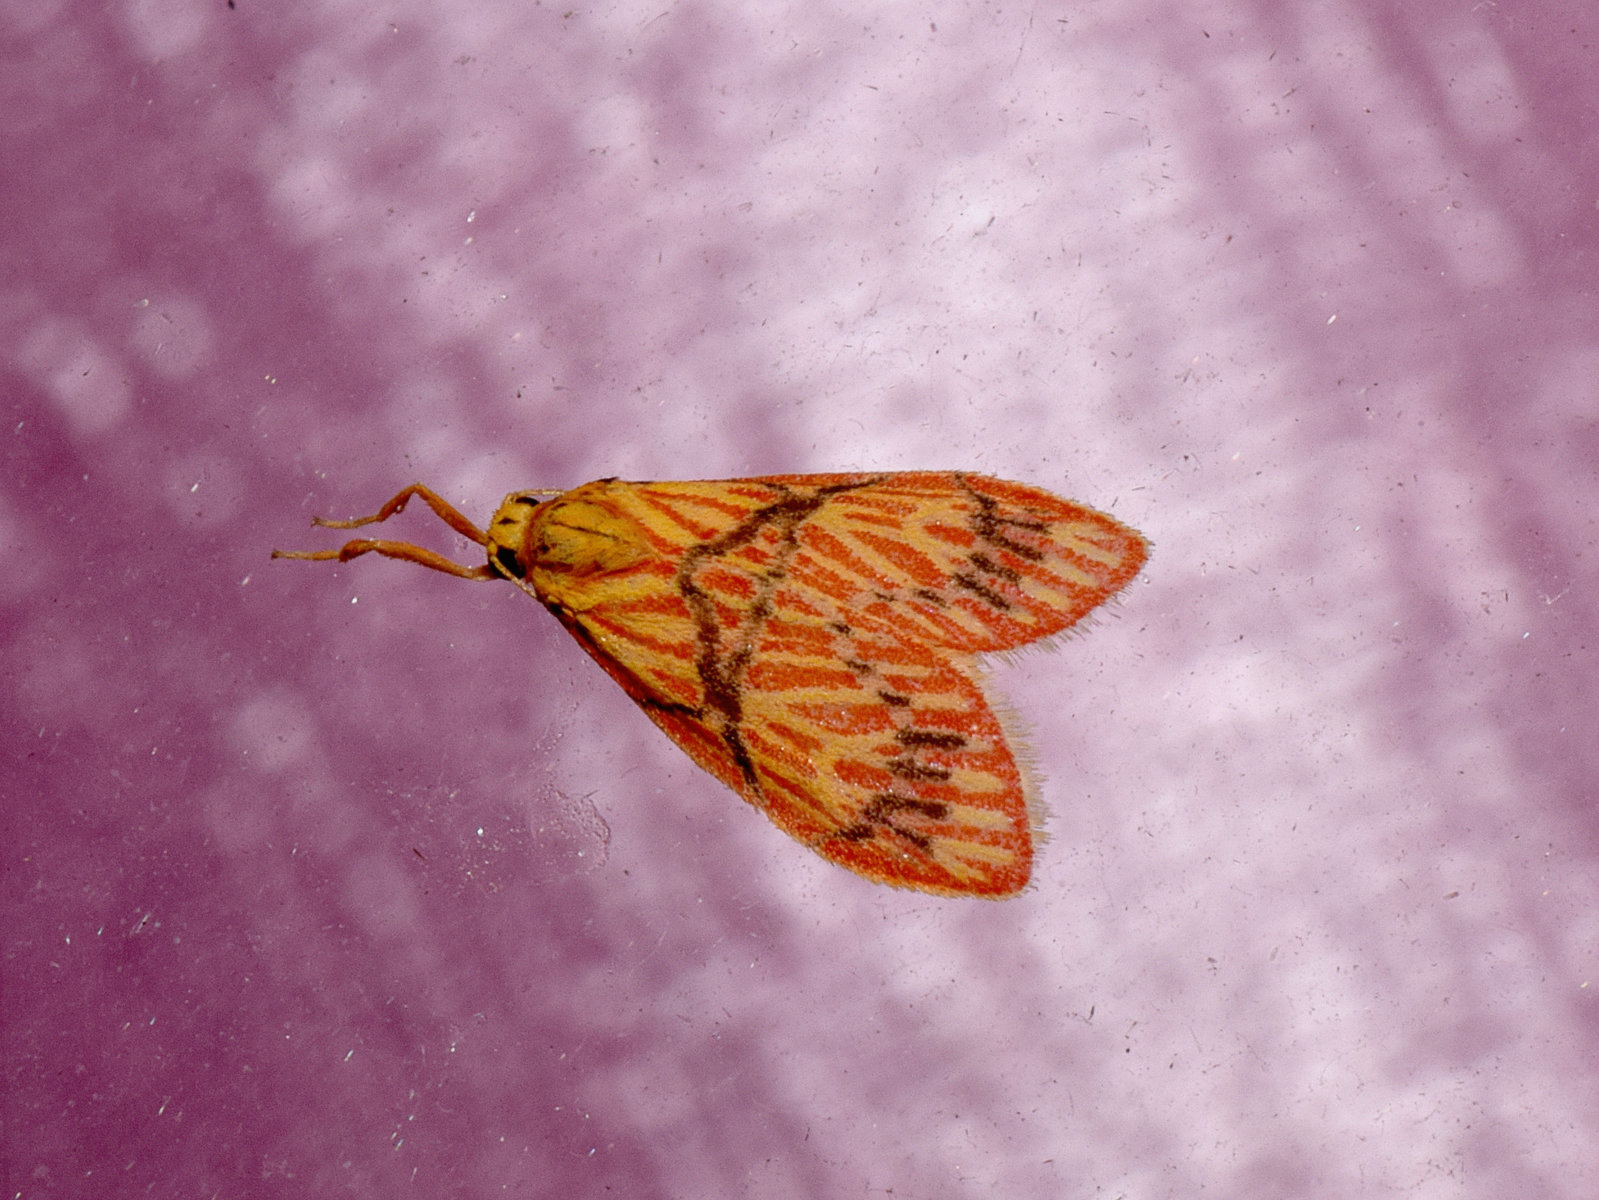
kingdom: Animalia
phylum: Arthropoda
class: Insecta
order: Lepidoptera
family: Erebidae
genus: Micrarsine
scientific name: Micrarsine flavivenosa
